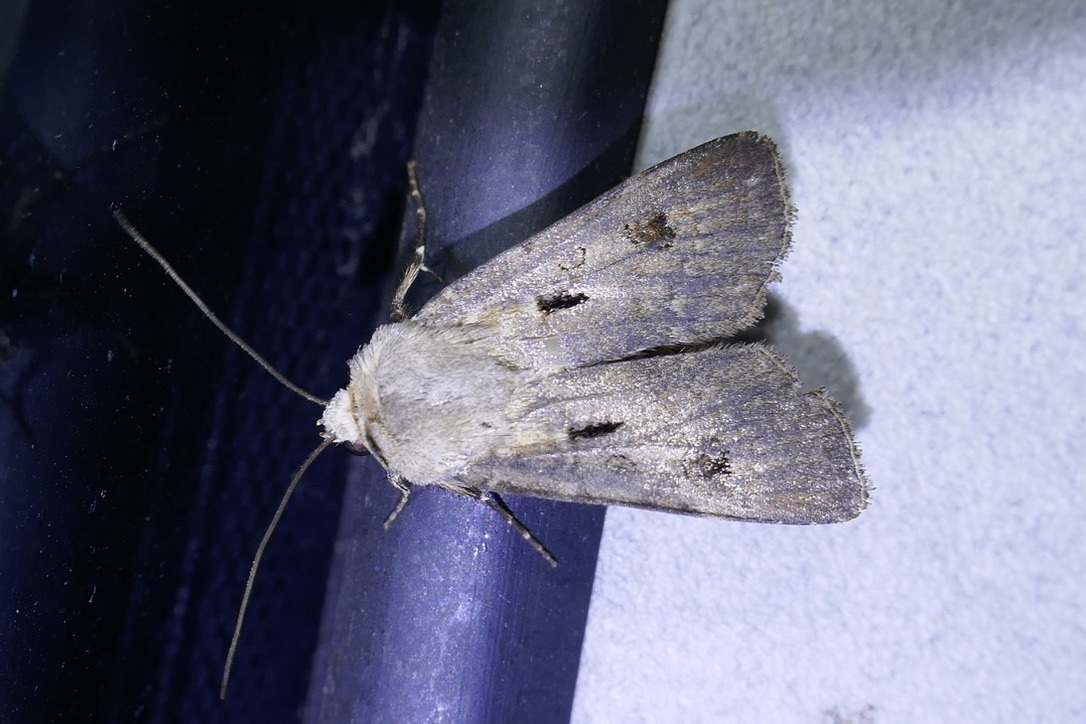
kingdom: Animalia
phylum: Arthropoda
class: Insecta
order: Lepidoptera
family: Noctuidae
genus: Agrotis
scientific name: Agrotis exclamationis
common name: Heart and dart
